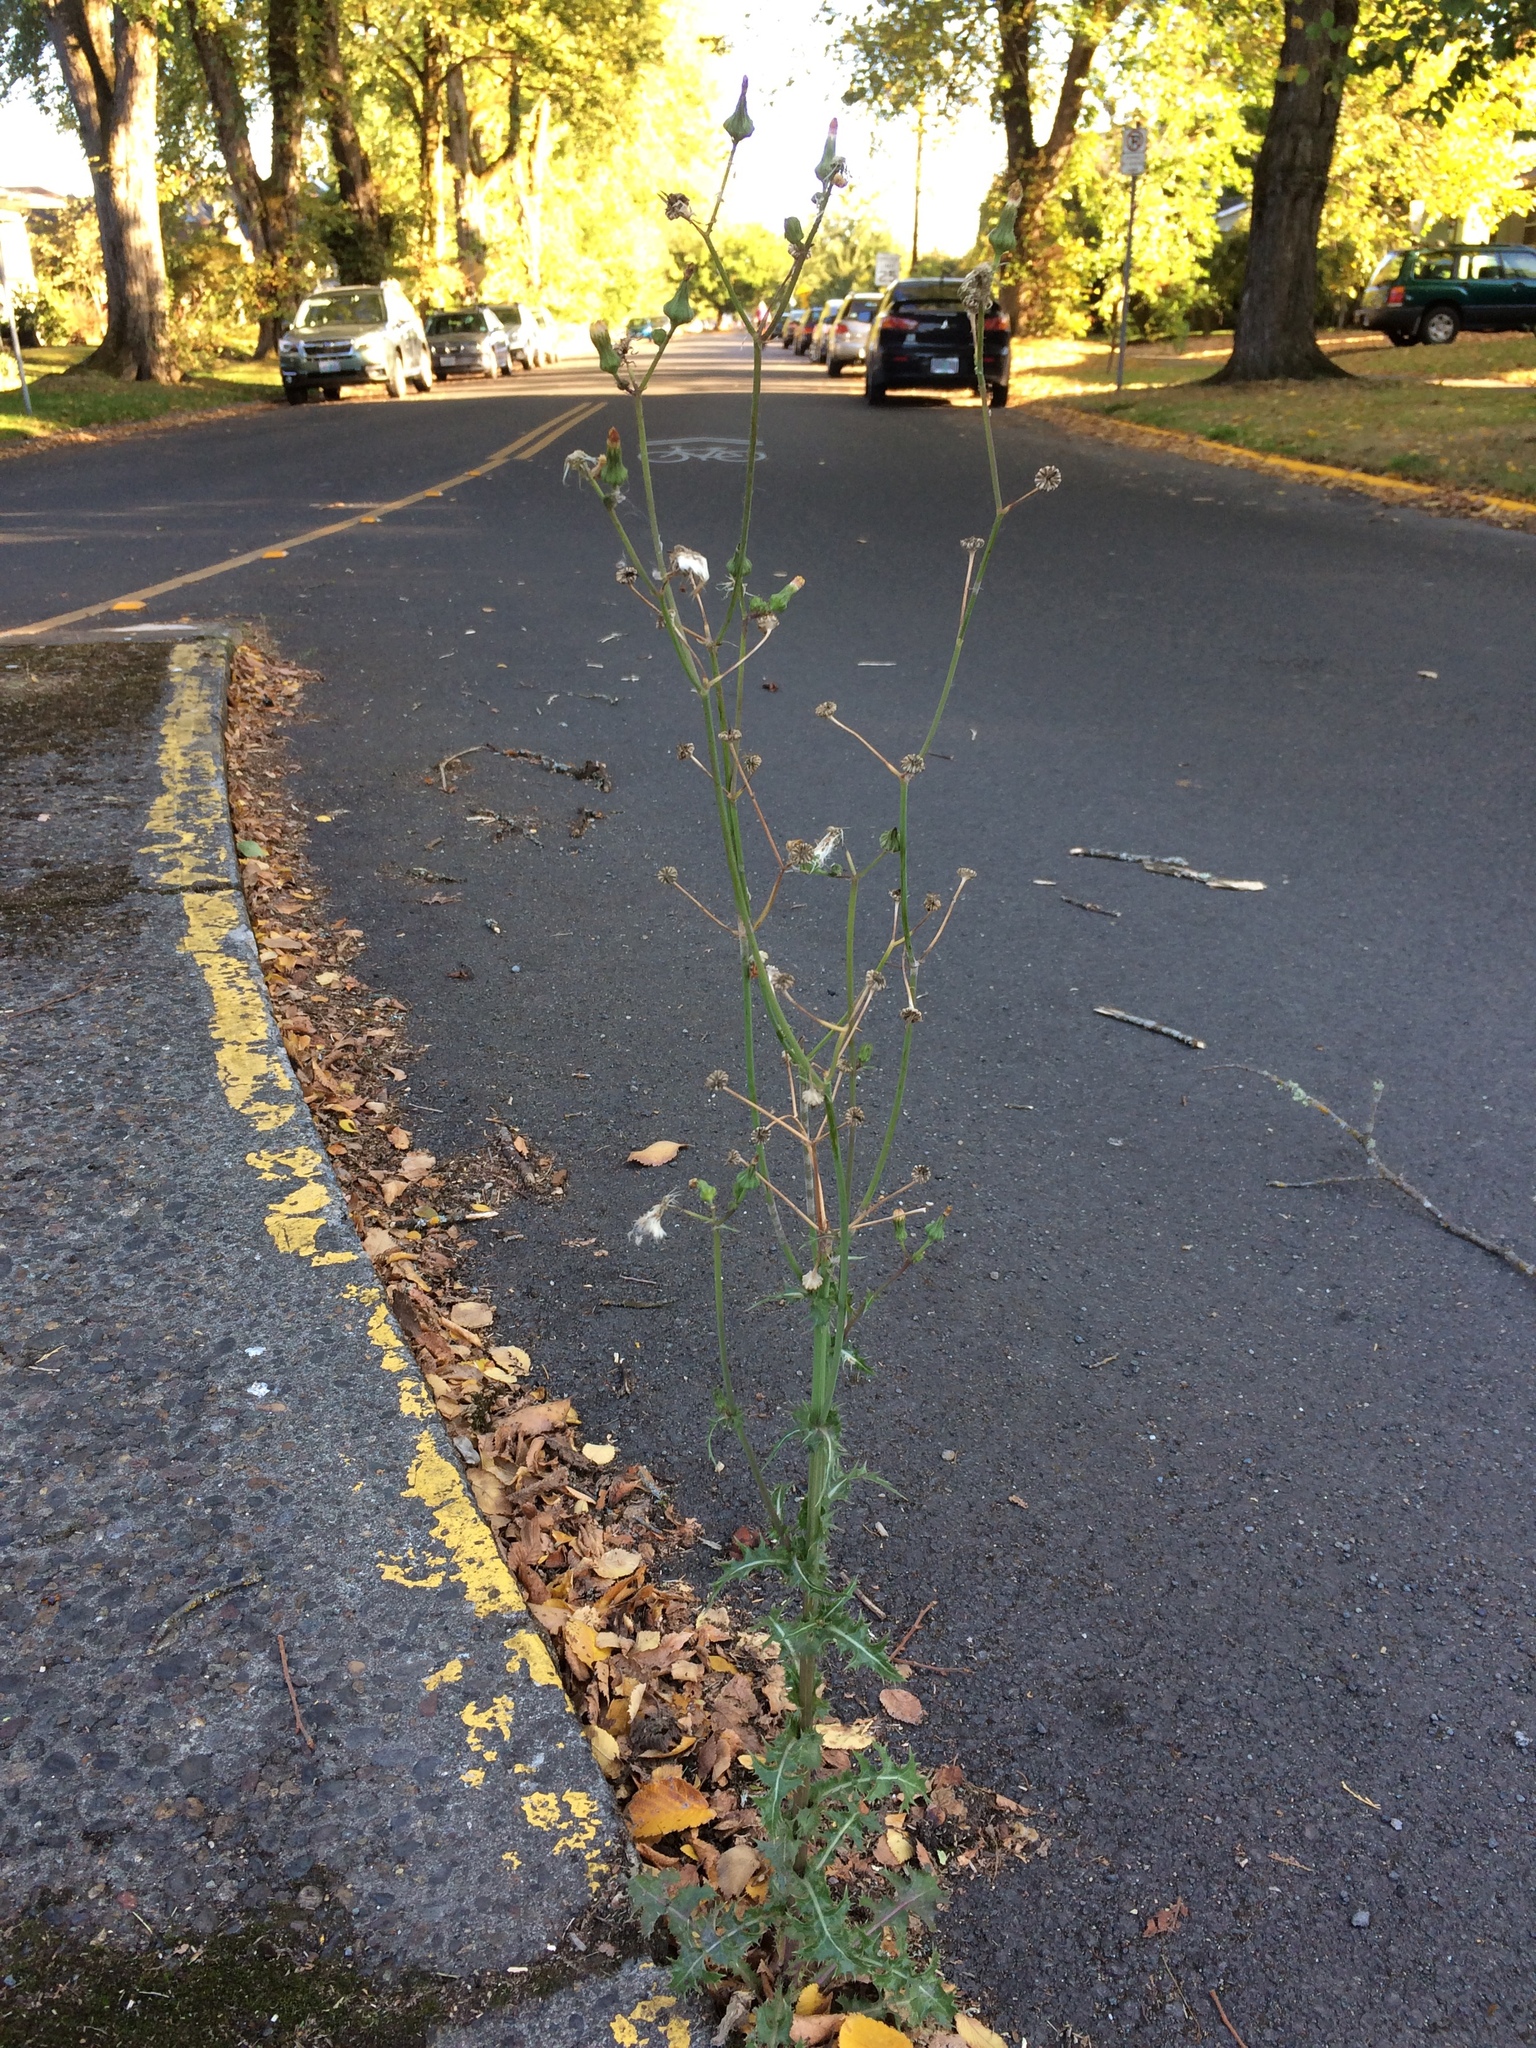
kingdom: Plantae
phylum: Tracheophyta
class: Magnoliopsida
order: Asterales
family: Asteraceae
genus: Sonchus
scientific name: Sonchus oleraceus
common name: Common sowthistle
